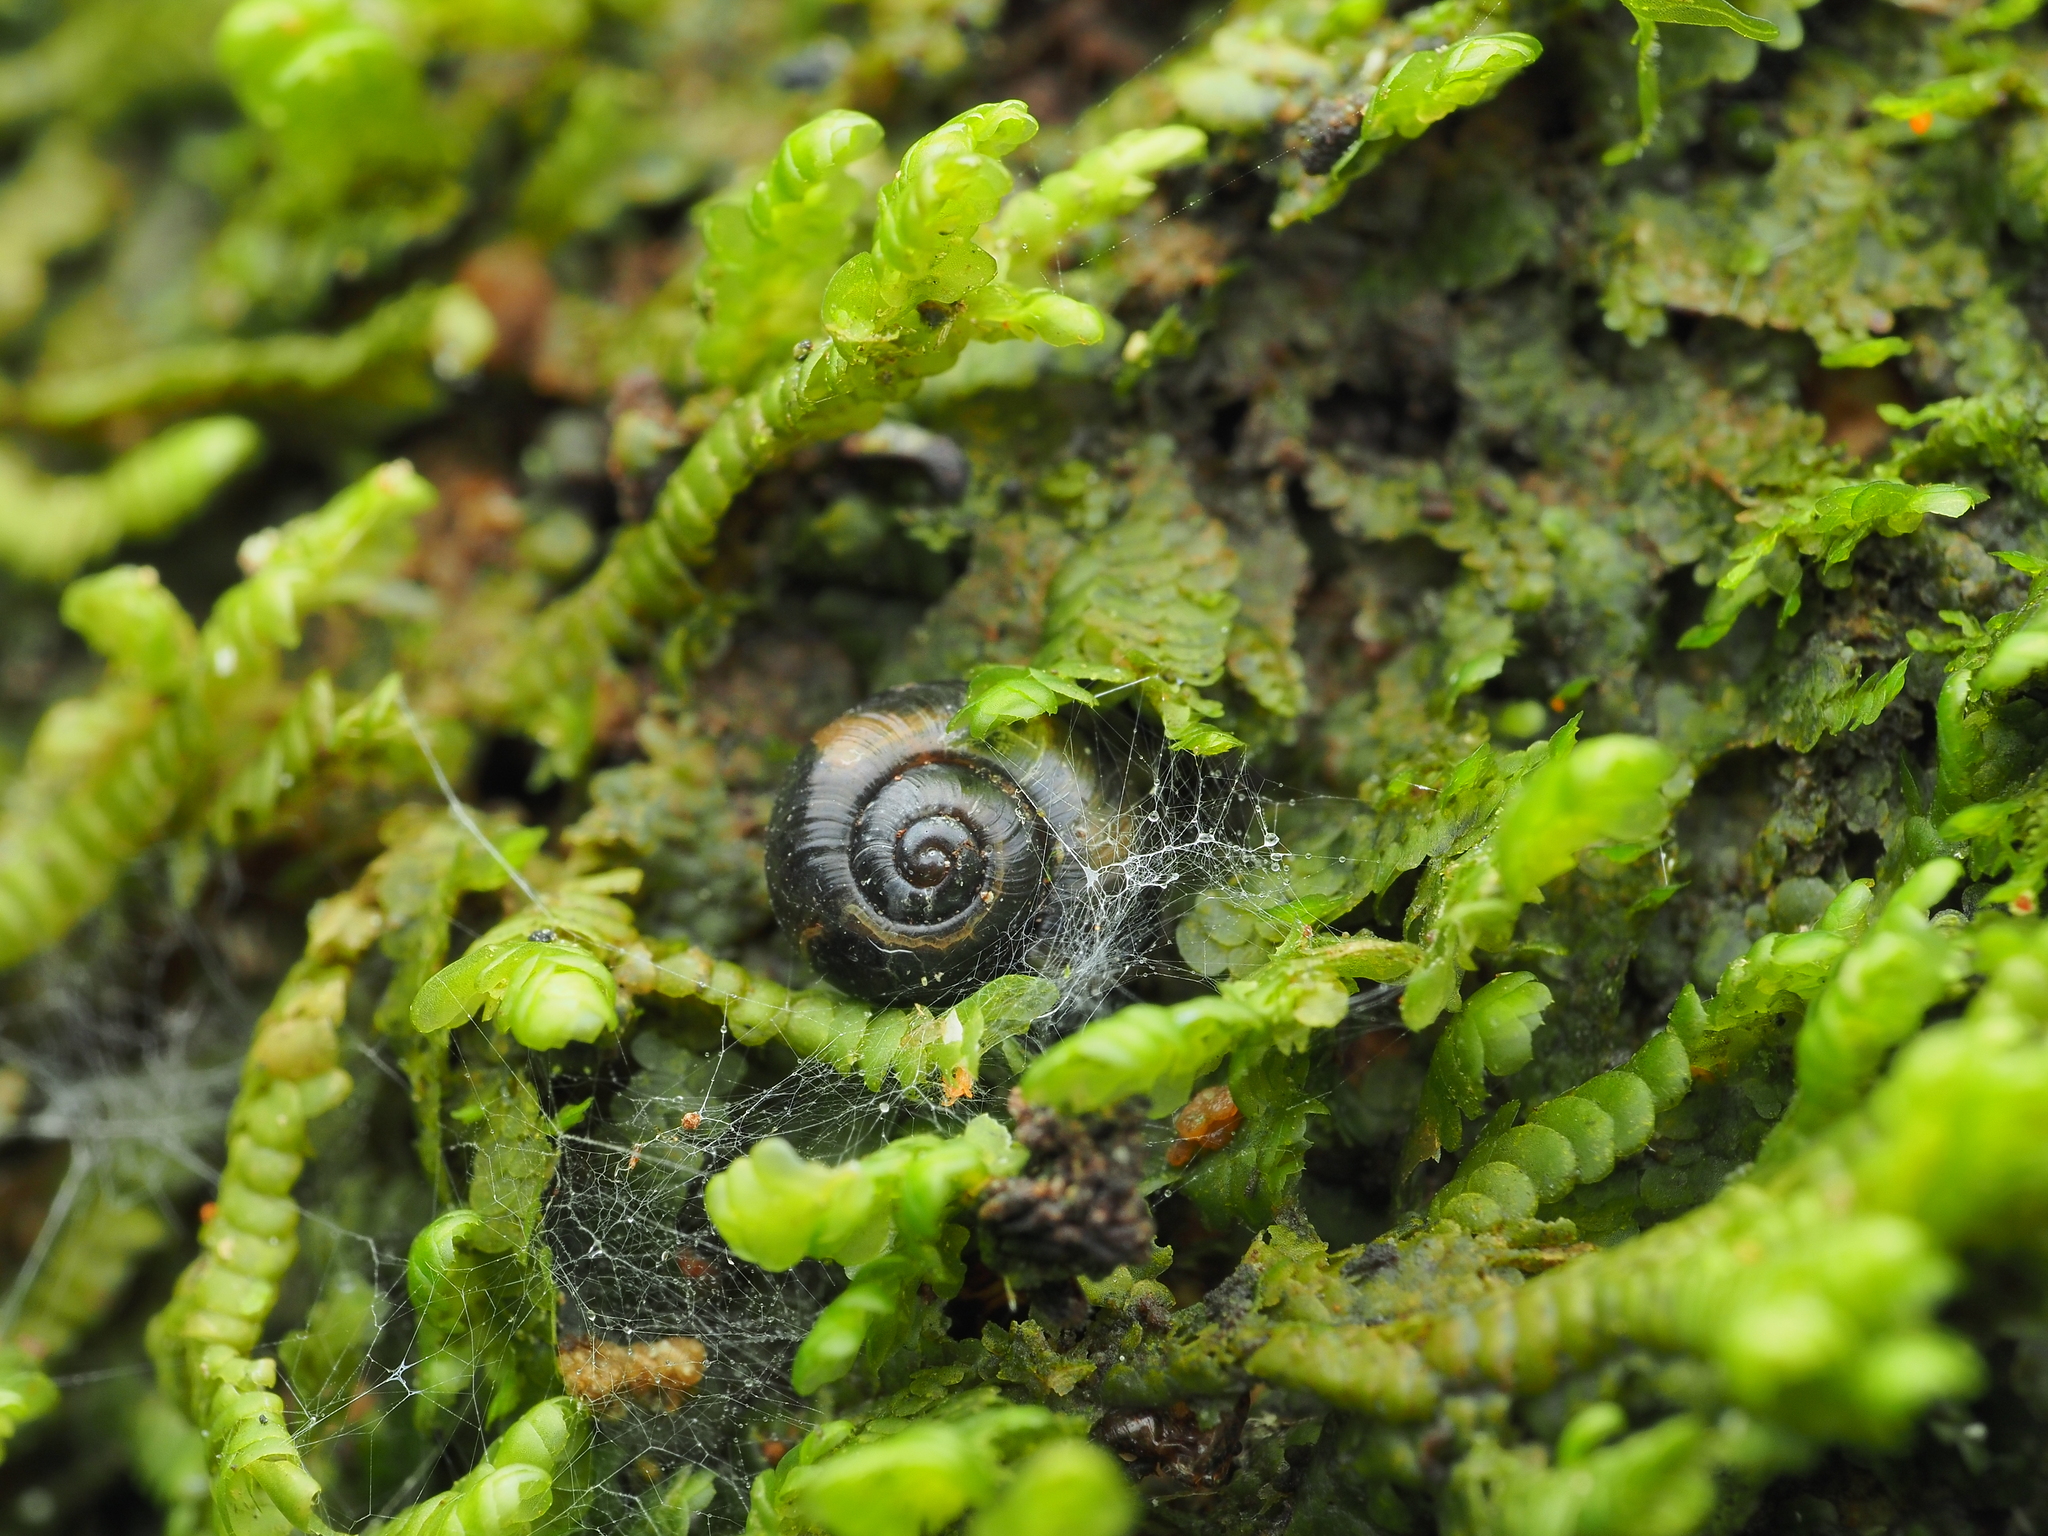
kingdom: Animalia
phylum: Mollusca
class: Gastropoda
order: Stylommatophora
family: Charopidae
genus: Flammulina
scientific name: Flammulina perdita
